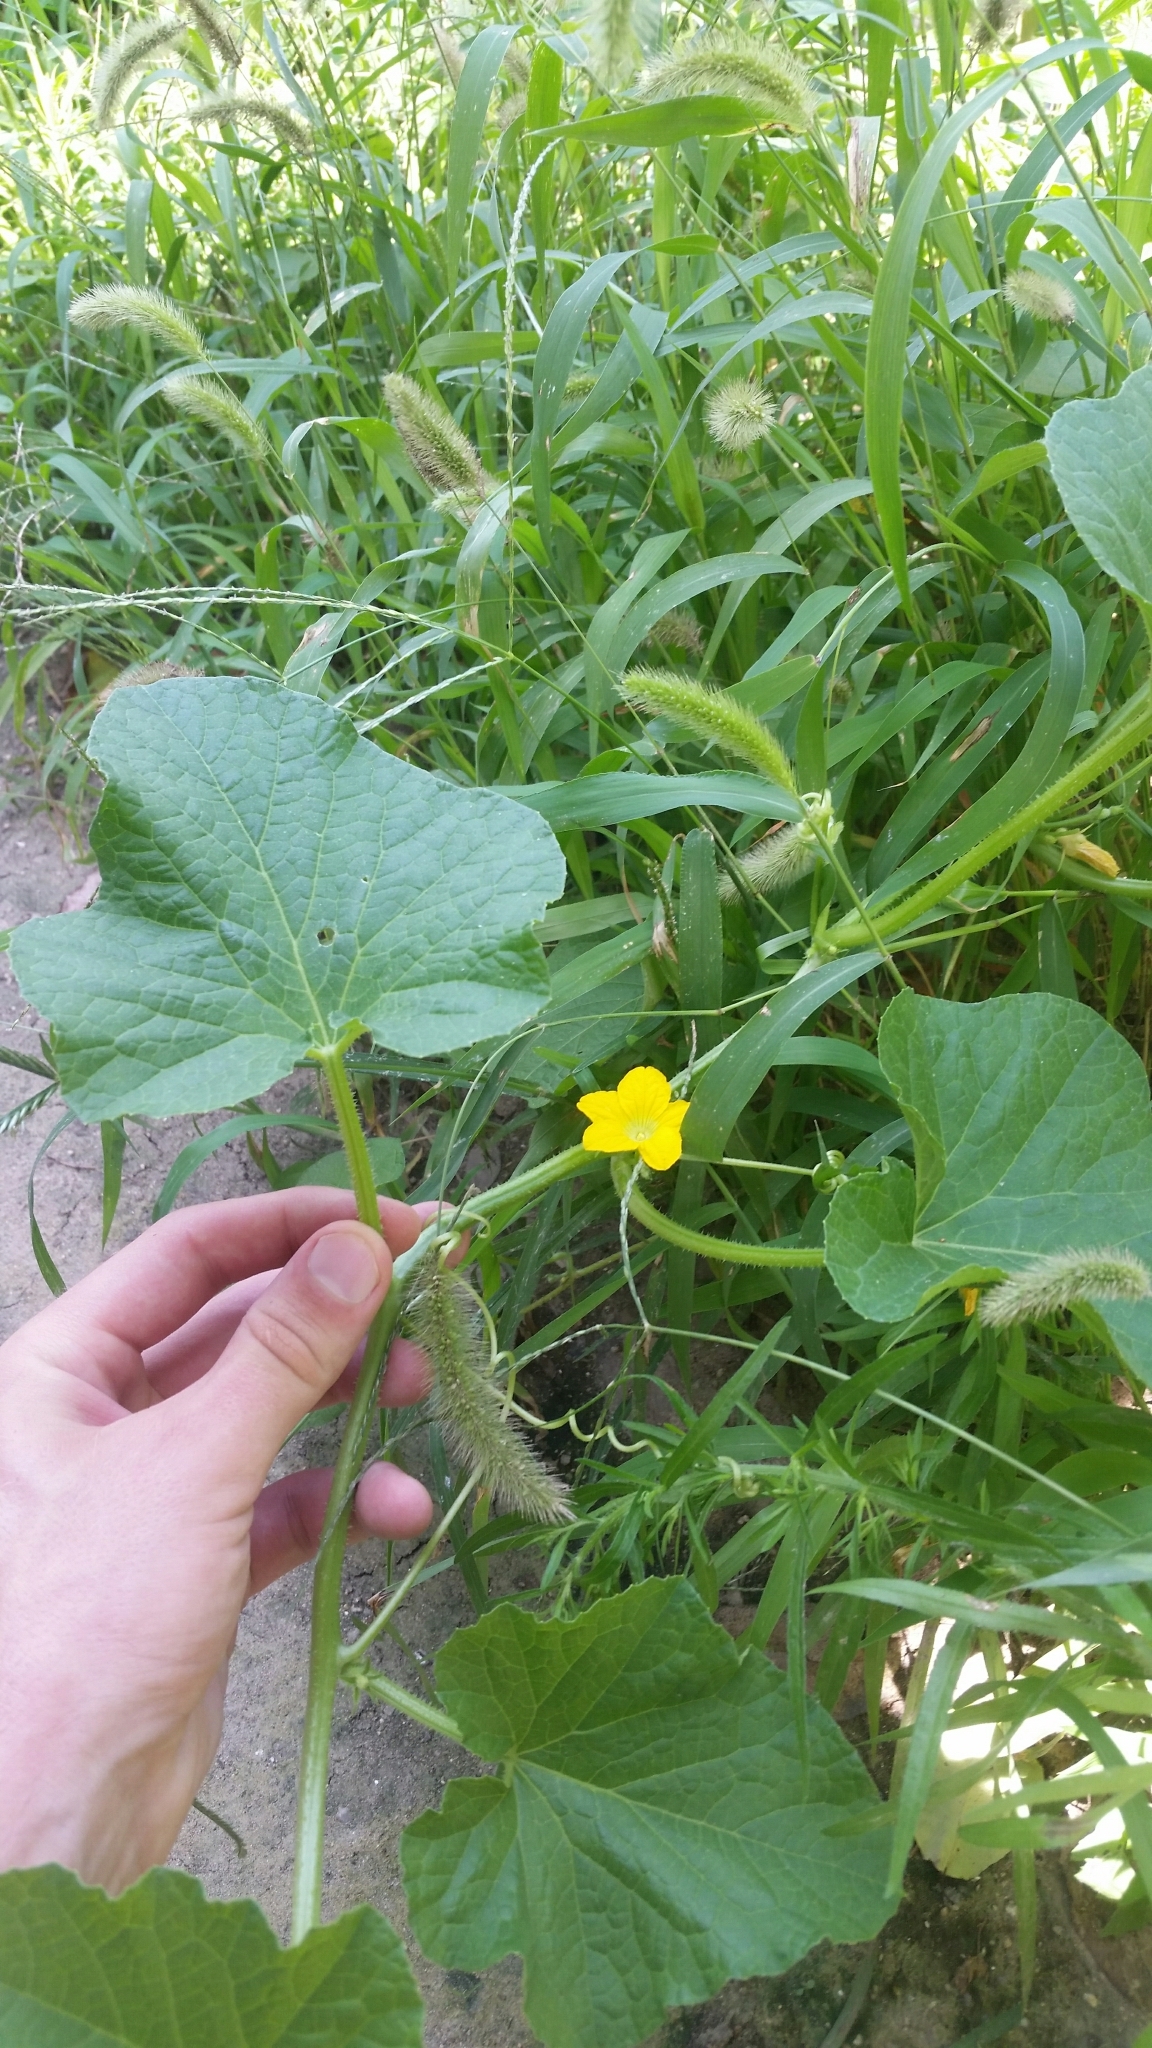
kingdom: Plantae
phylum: Tracheophyta
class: Magnoliopsida
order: Cucurbitales
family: Cucurbitaceae
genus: Cucumis
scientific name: Cucumis melo
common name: Melon
